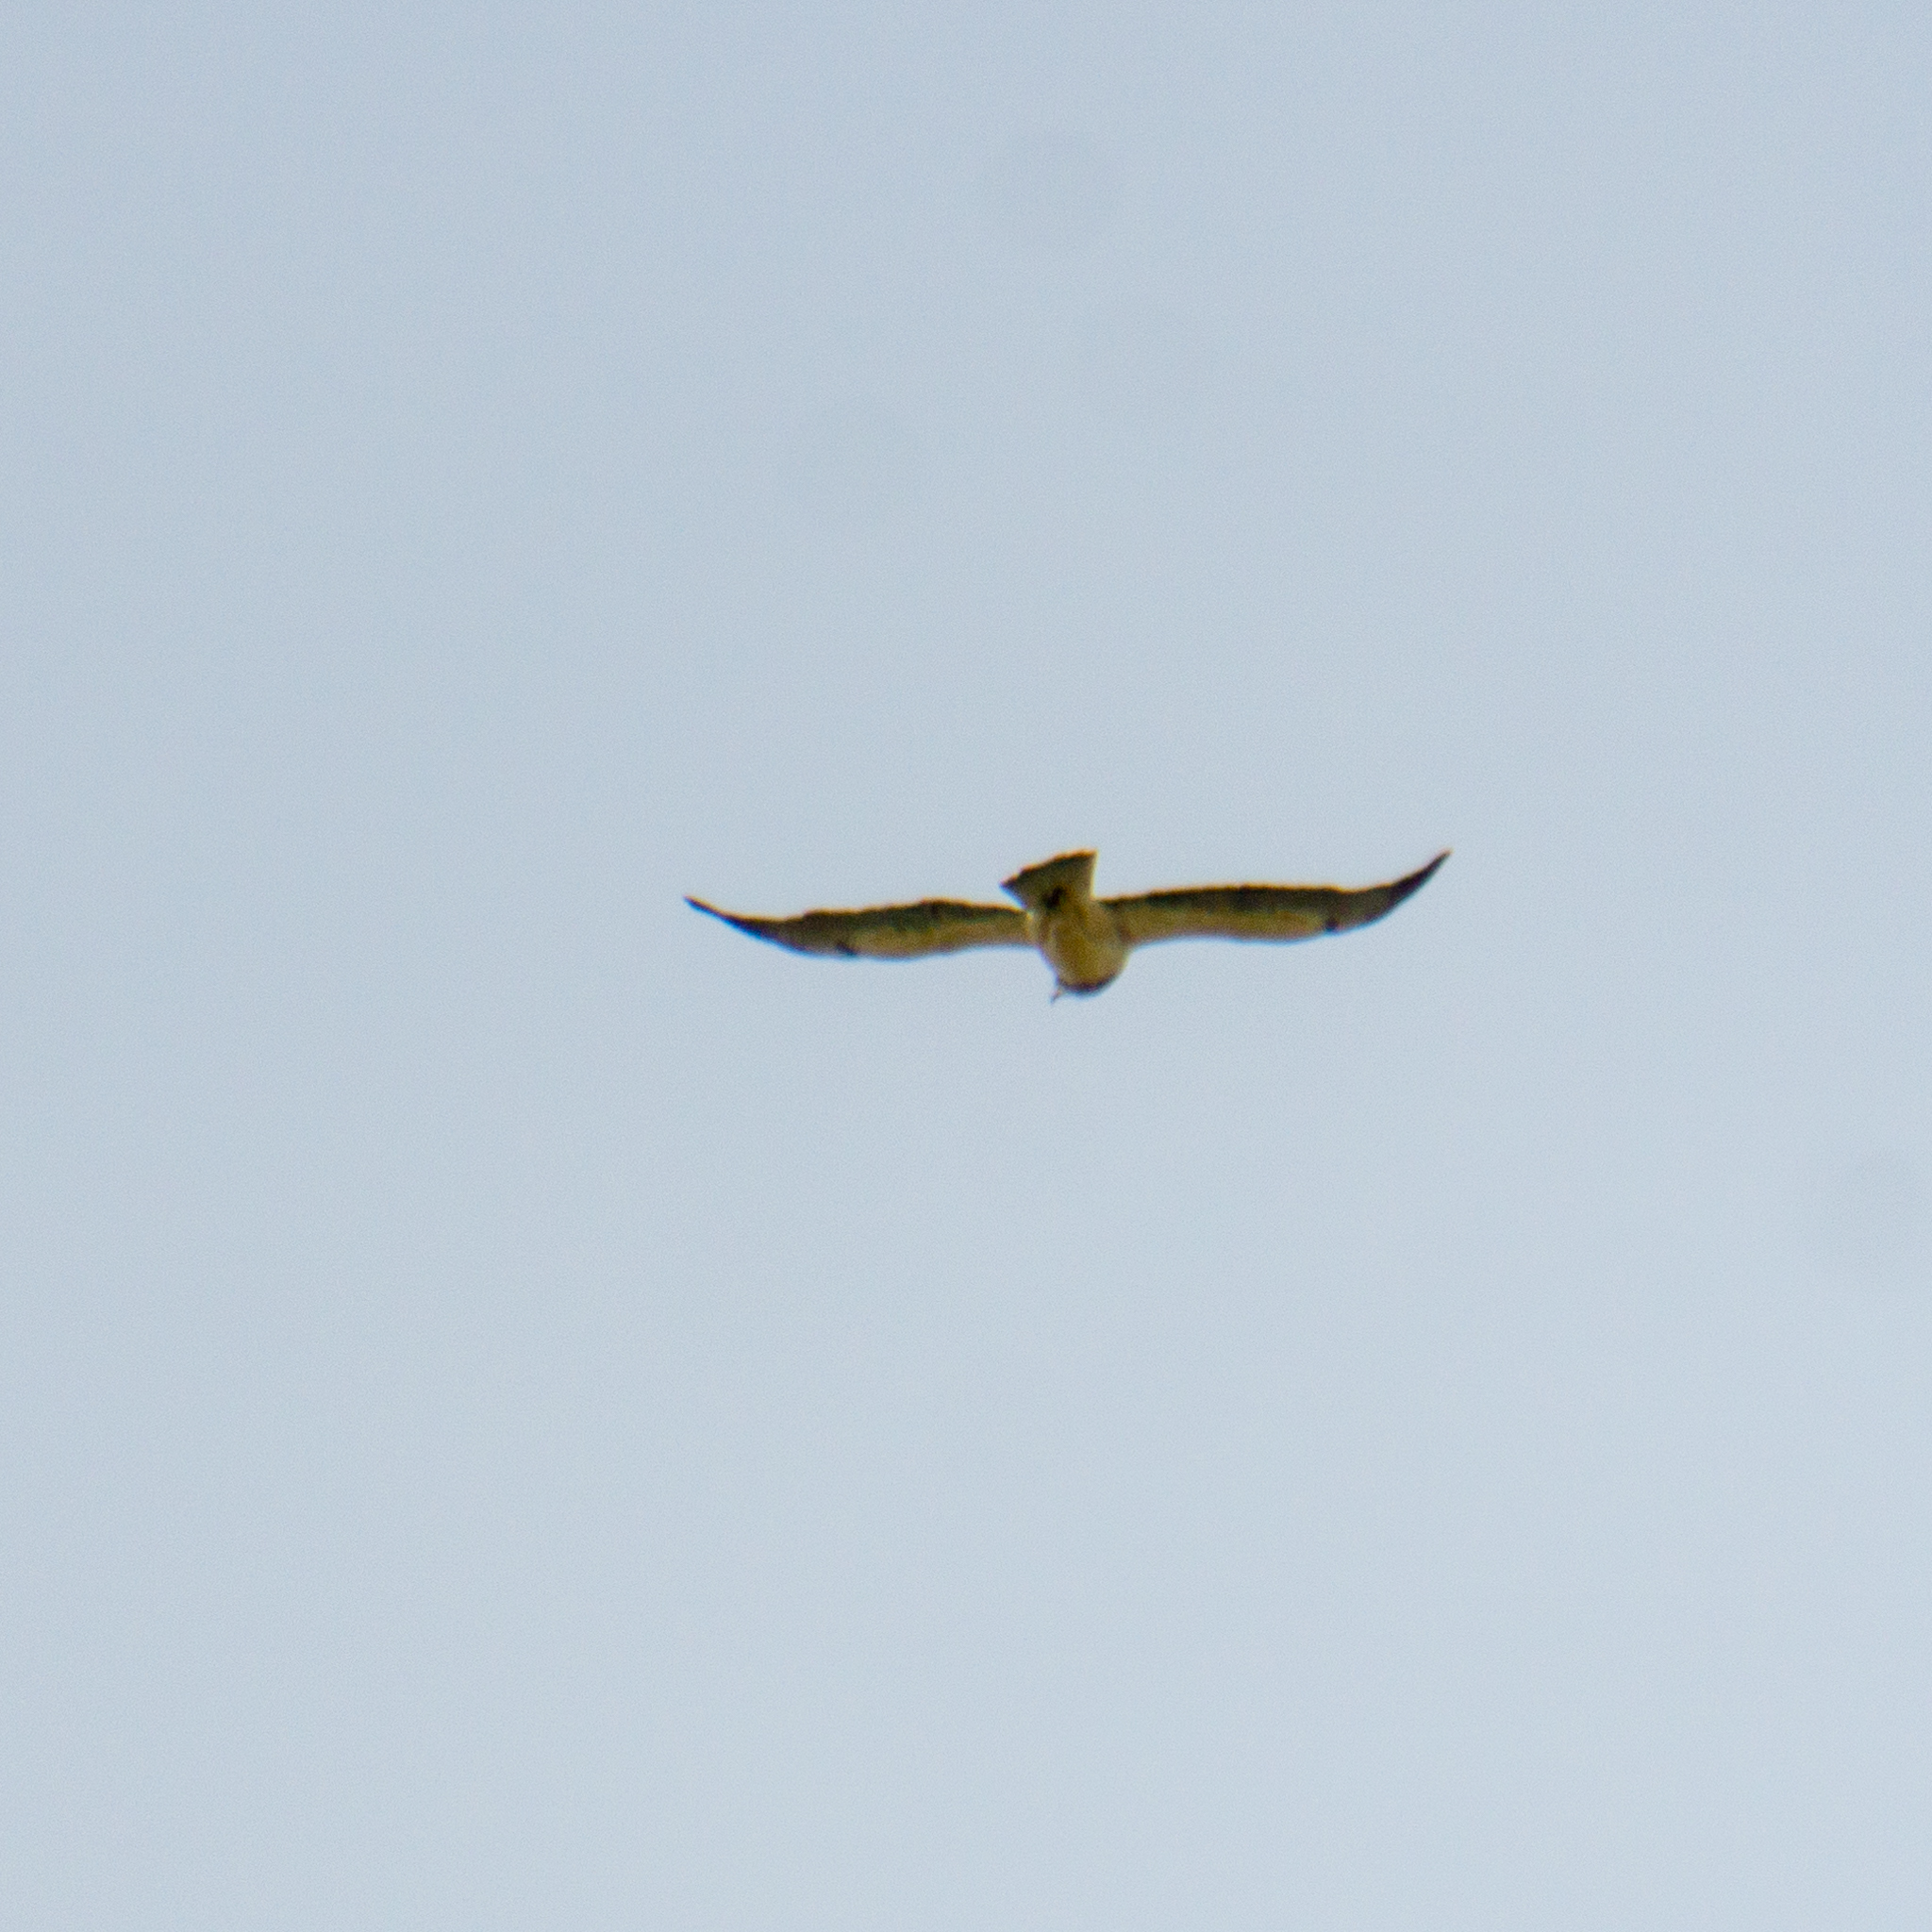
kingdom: Animalia
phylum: Chordata
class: Aves
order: Accipitriformes
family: Accipitridae
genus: Buteo
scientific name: Buteo swainsoni
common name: Swainson's hawk
